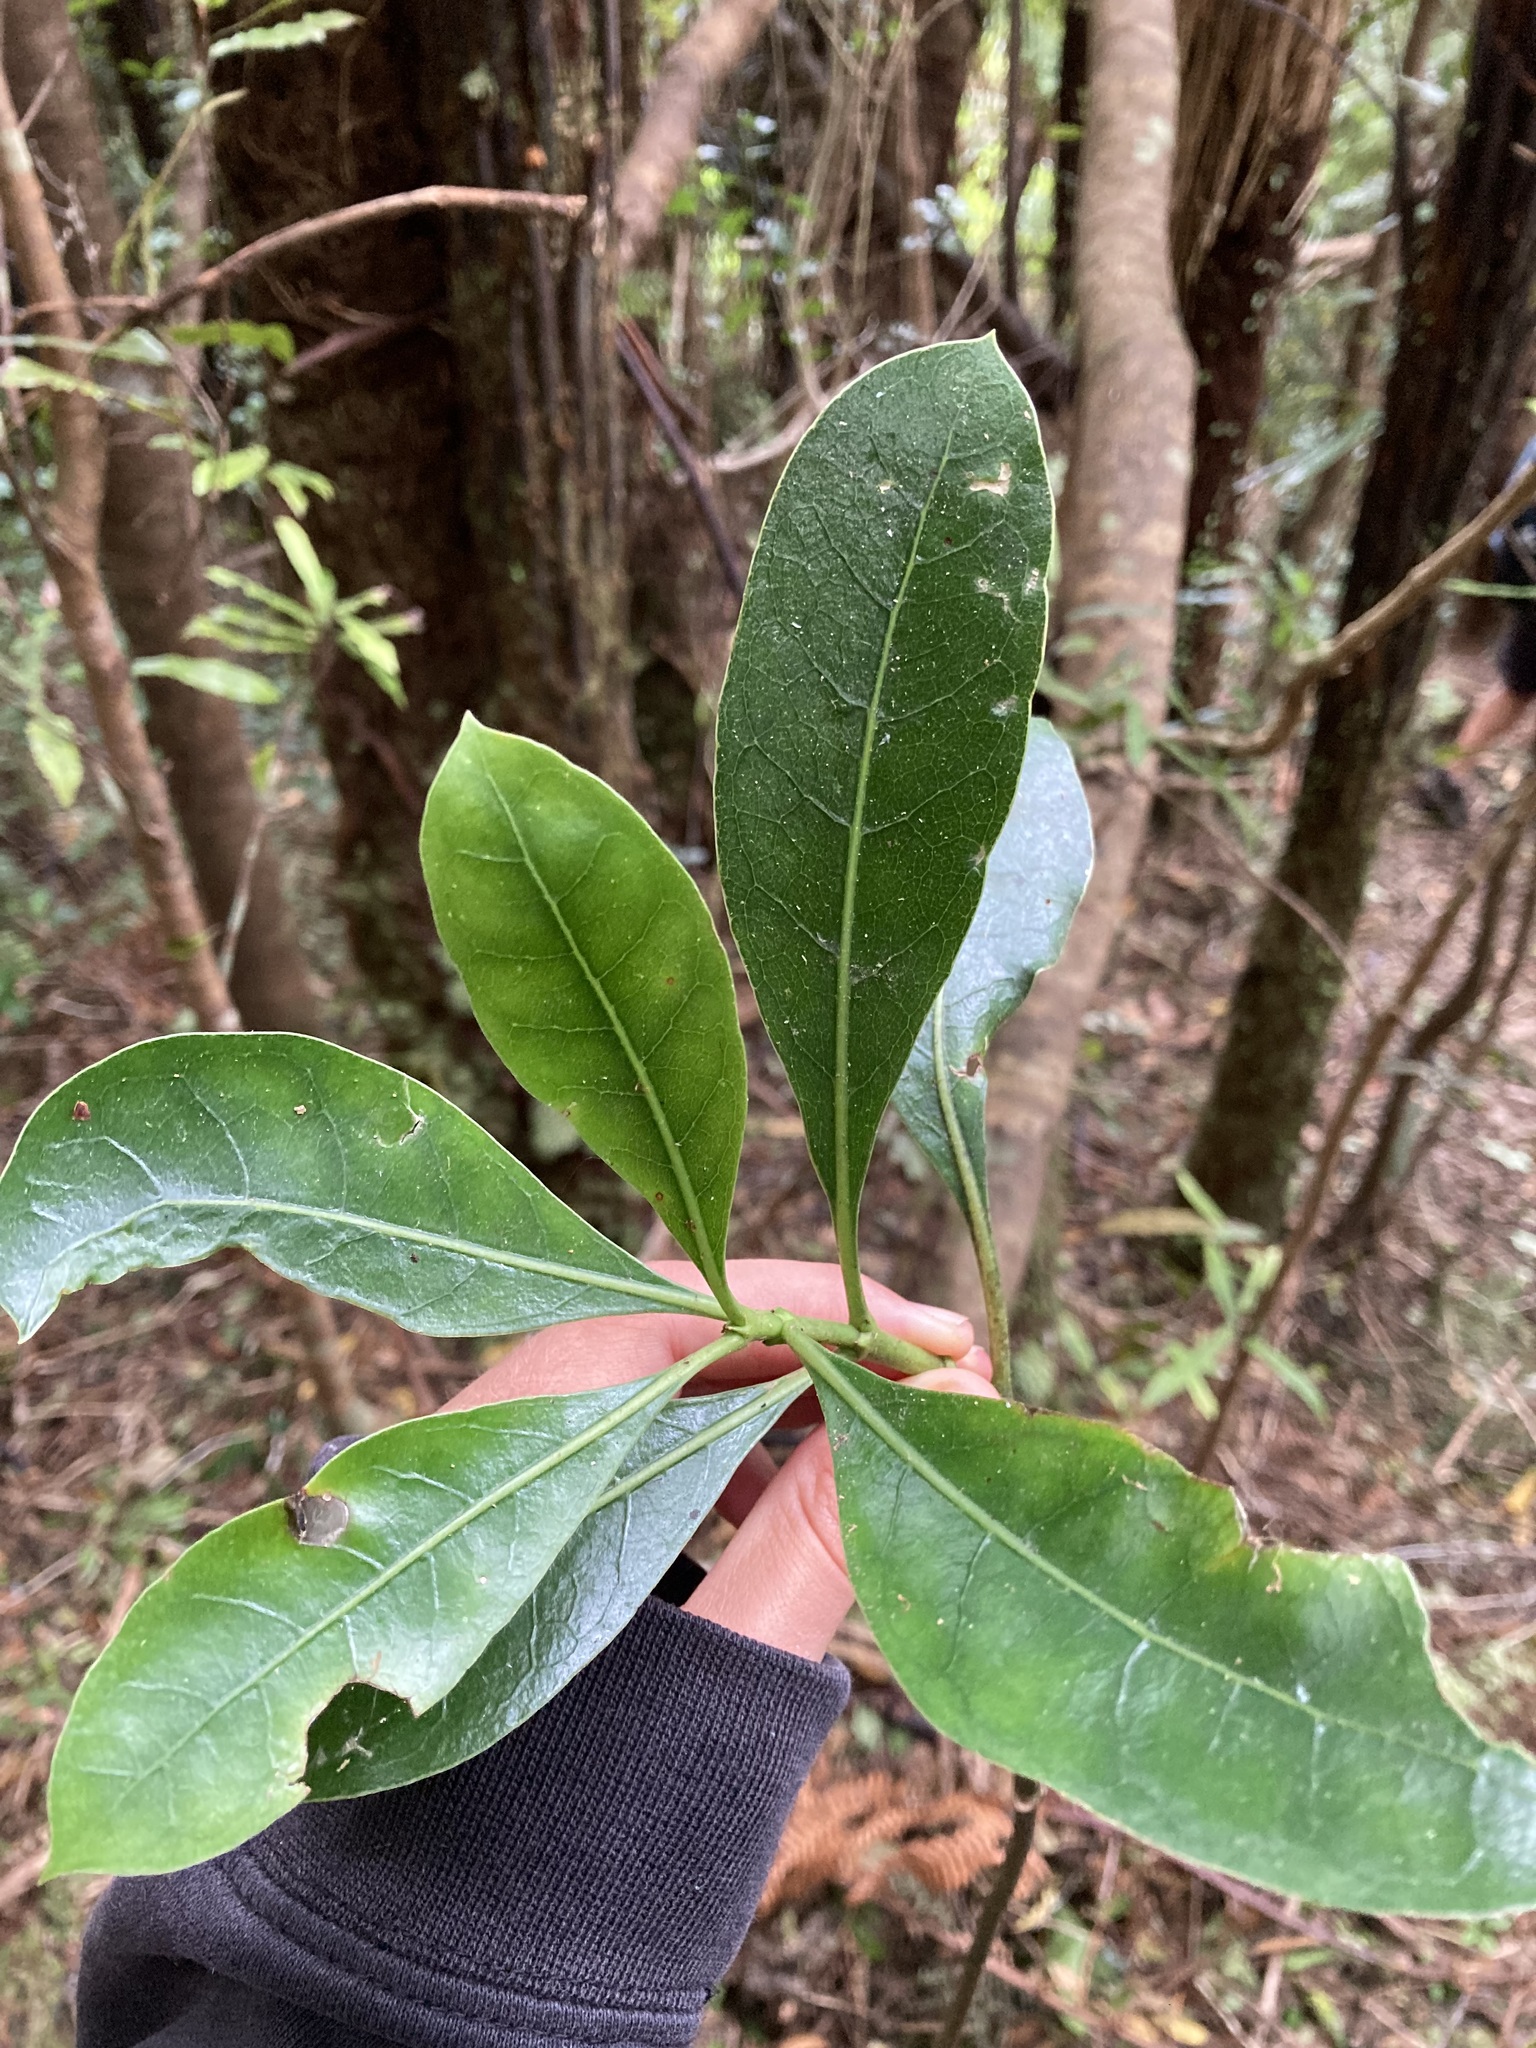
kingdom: Plantae
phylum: Tracheophyta
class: Magnoliopsida
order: Gentianales
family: Rubiaceae
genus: Coprosma
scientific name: Coprosma lucida
